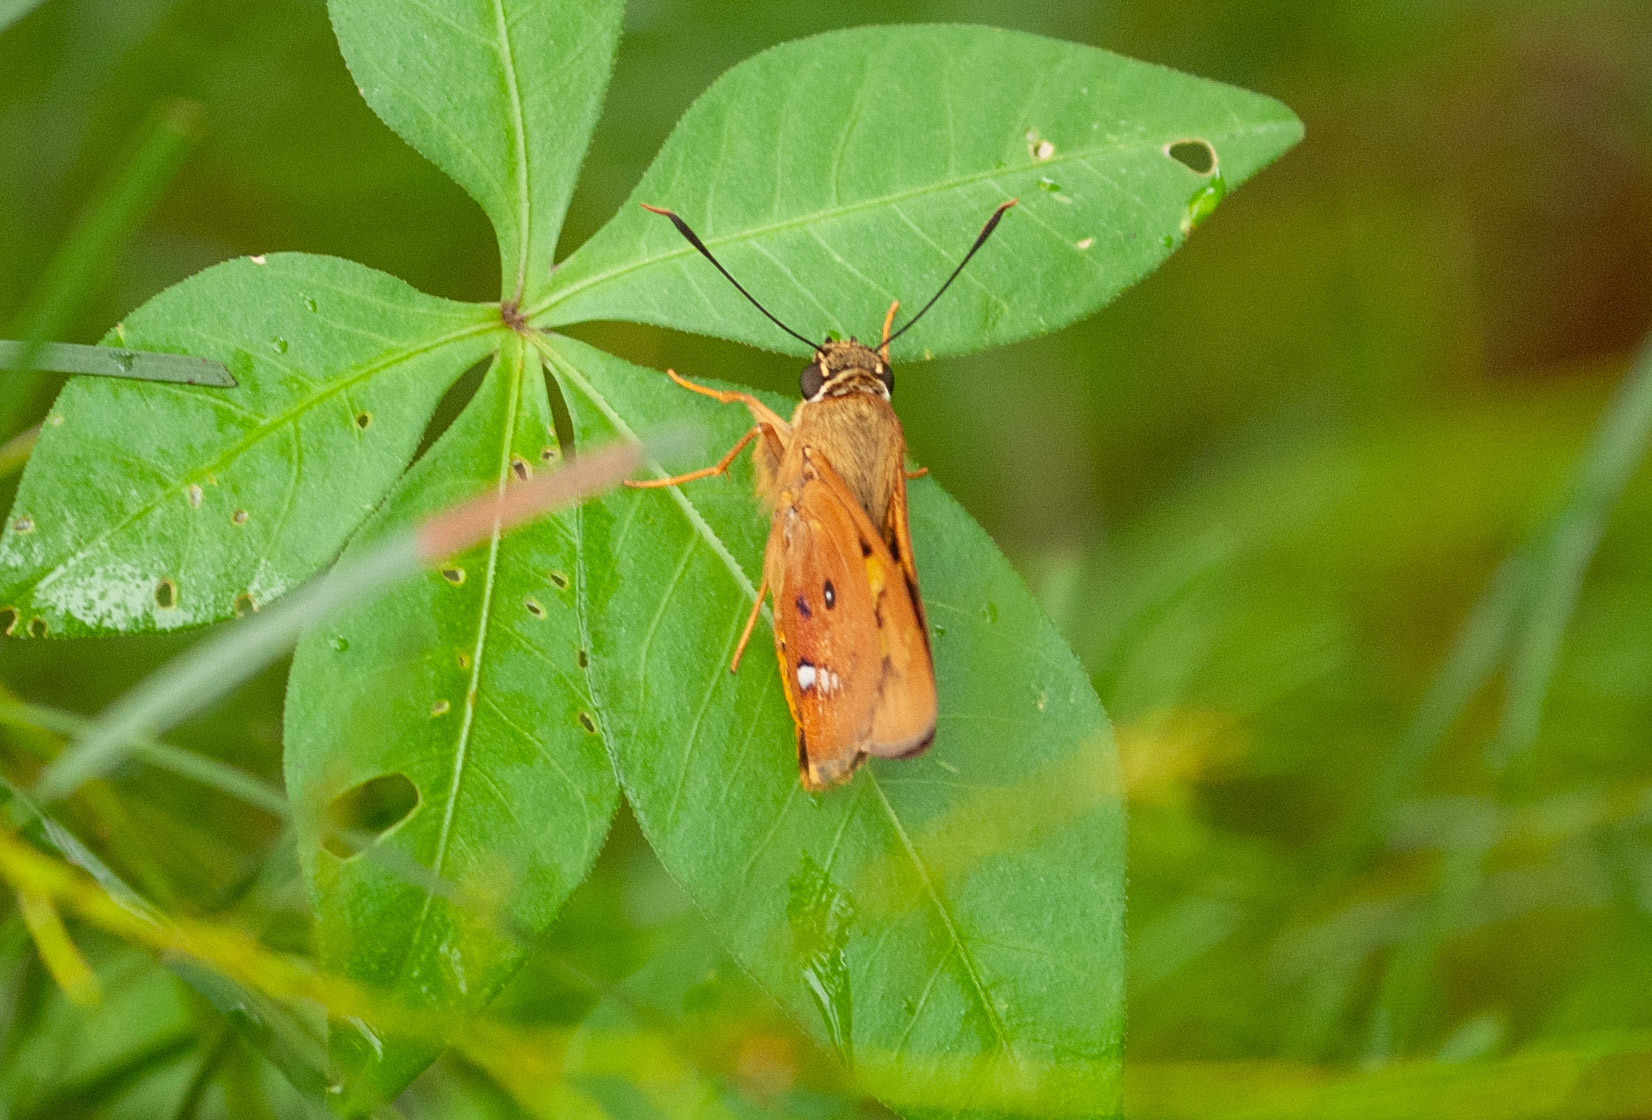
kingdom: Animalia
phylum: Arthropoda
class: Insecta
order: Lepidoptera
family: Hesperiidae
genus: Trapezites
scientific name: Trapezites symmomus
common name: Splendid ochre
